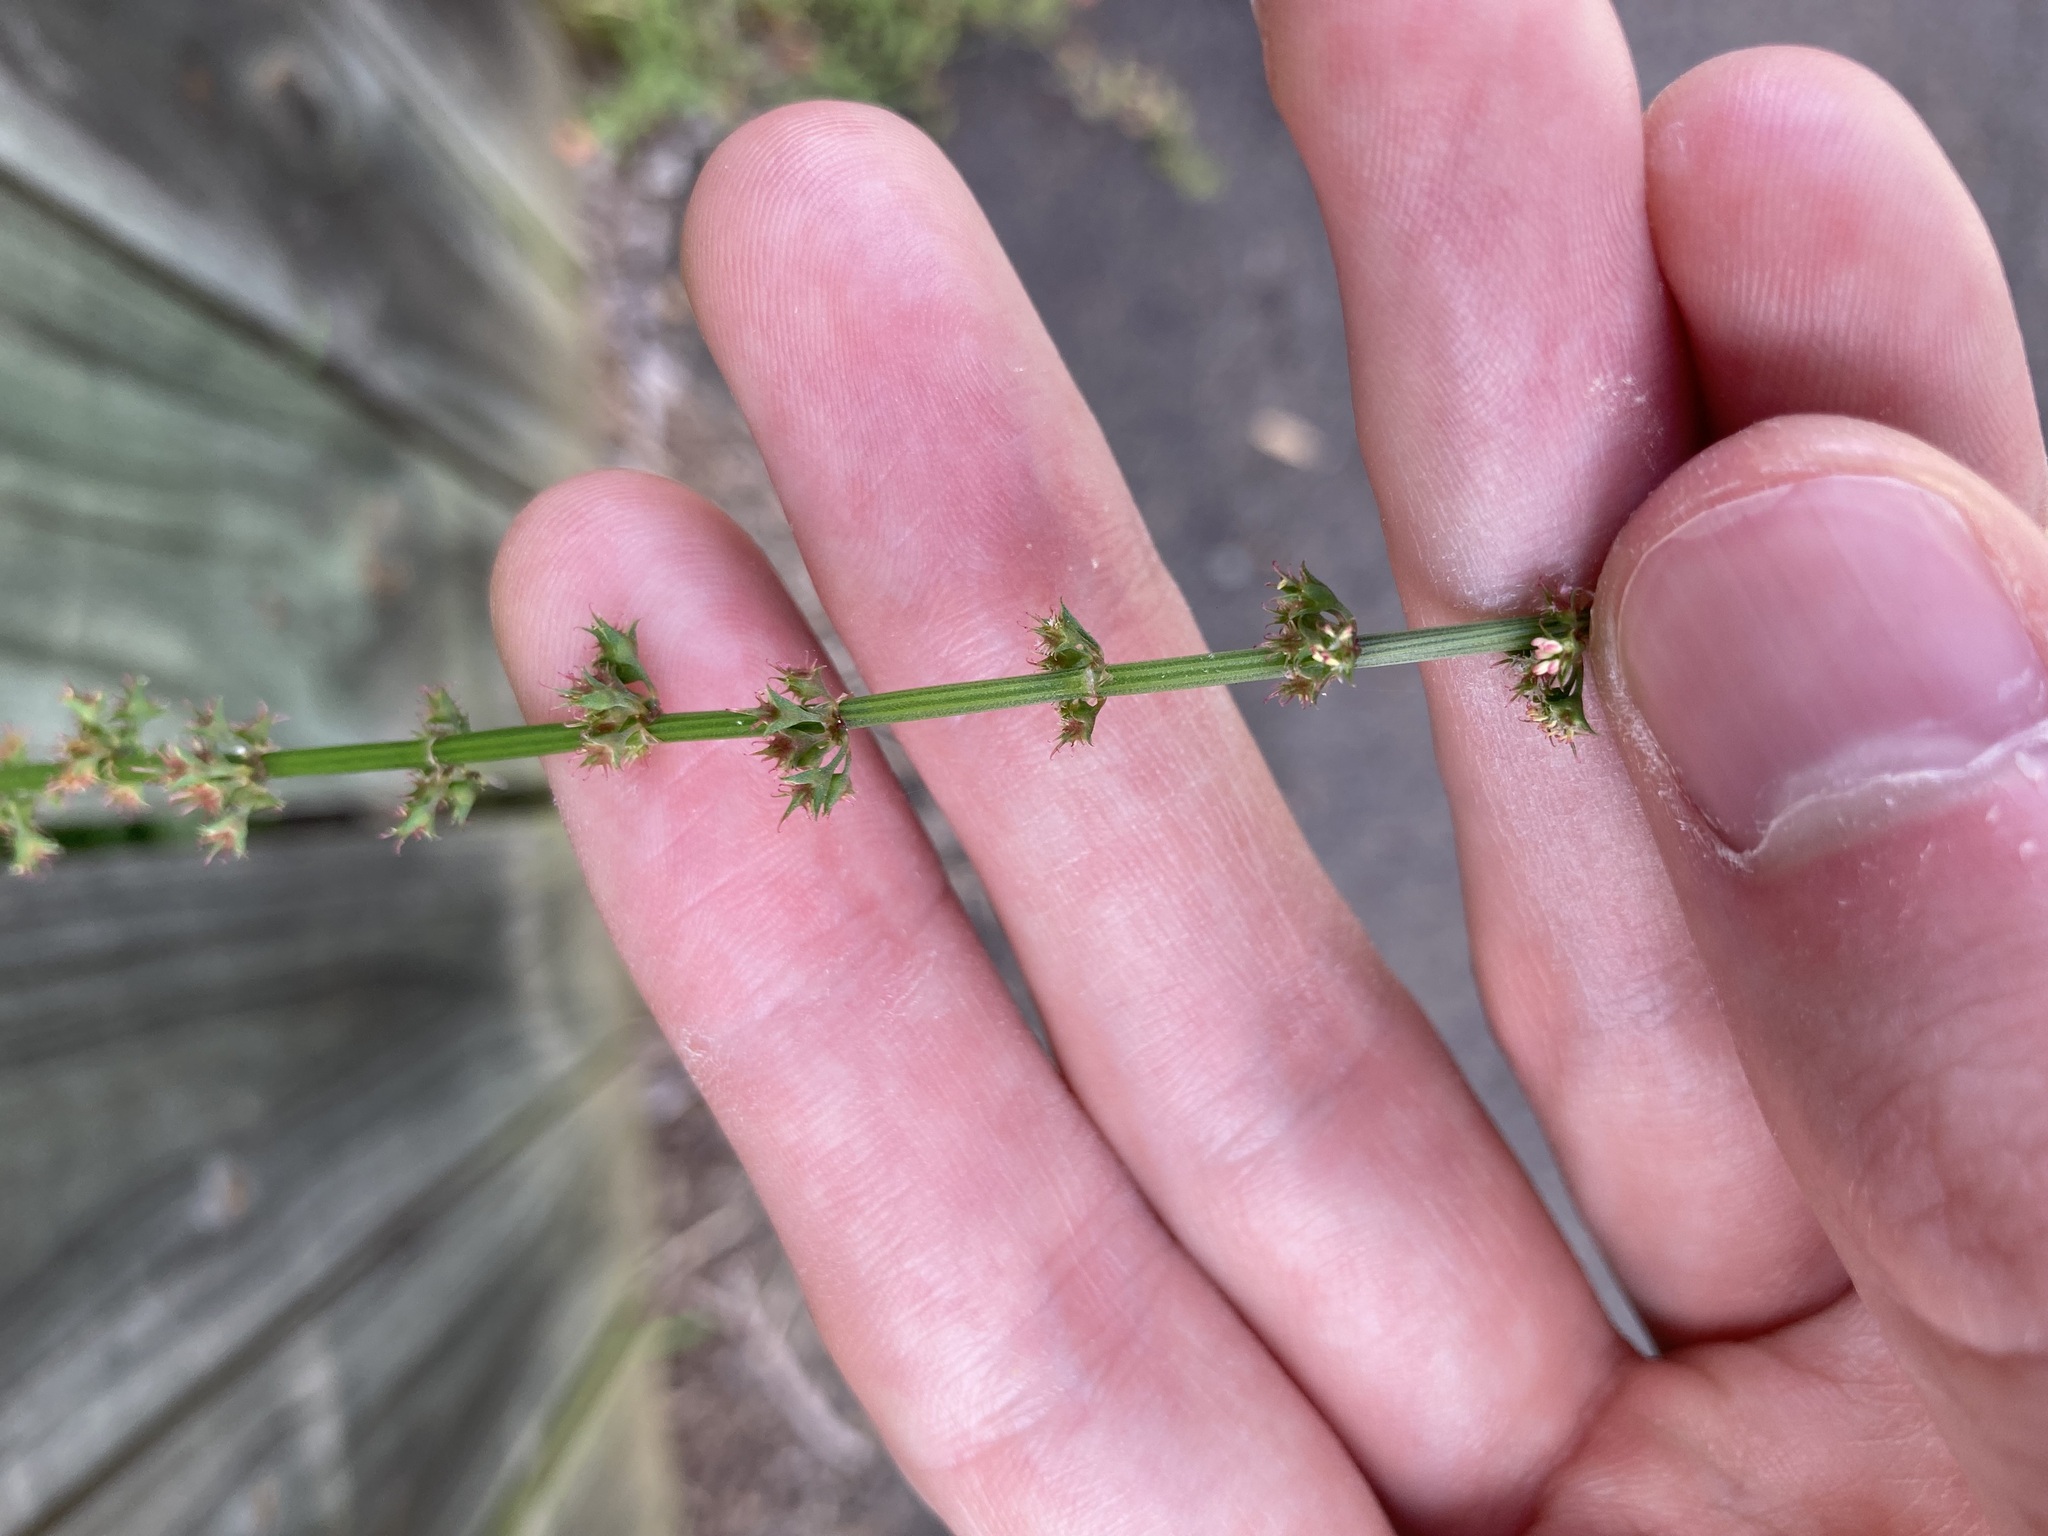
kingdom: Plantae
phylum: Tracheophyta
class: Magnoliopsida
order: Caryophyllales
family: Polygonaceae
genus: Rumex
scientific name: Rumex brownii
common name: Hooked dock
